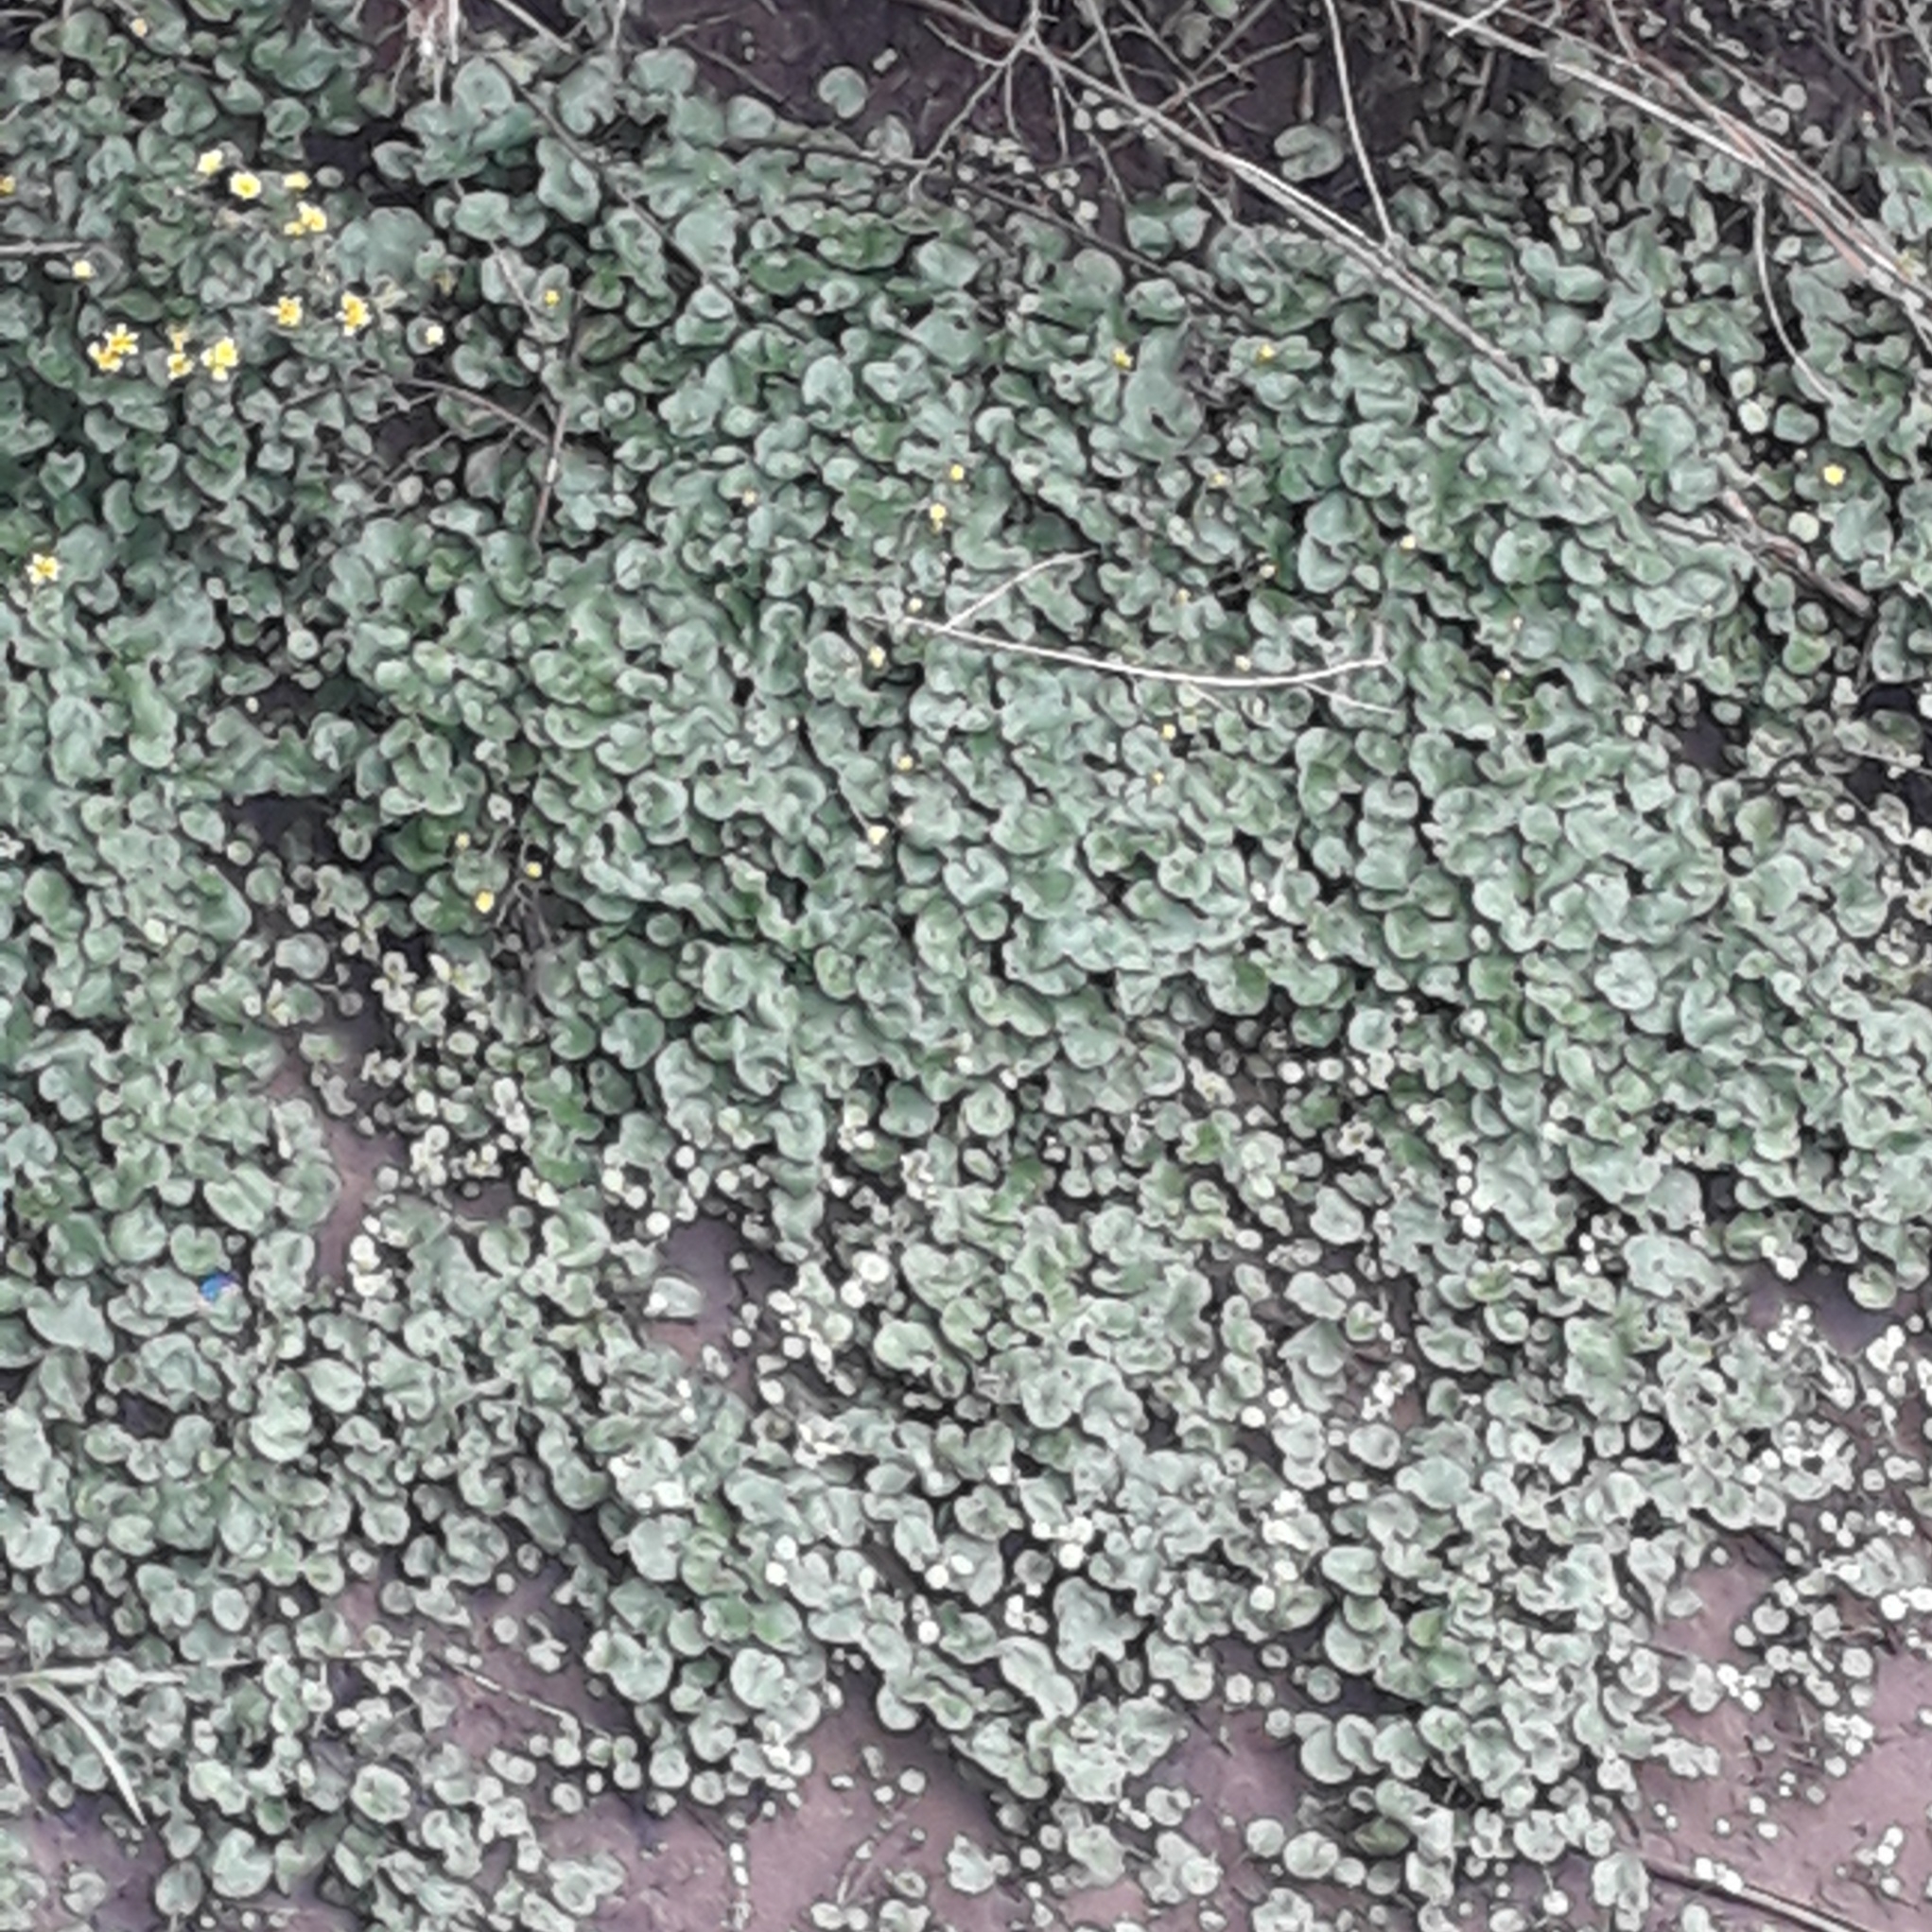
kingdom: Plantae
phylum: Tracheophyta
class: Magnoliopsida
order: Ranunculales
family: Ranunculaceae
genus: Ficaria
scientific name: Ficaria verna
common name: Lesser celandine
